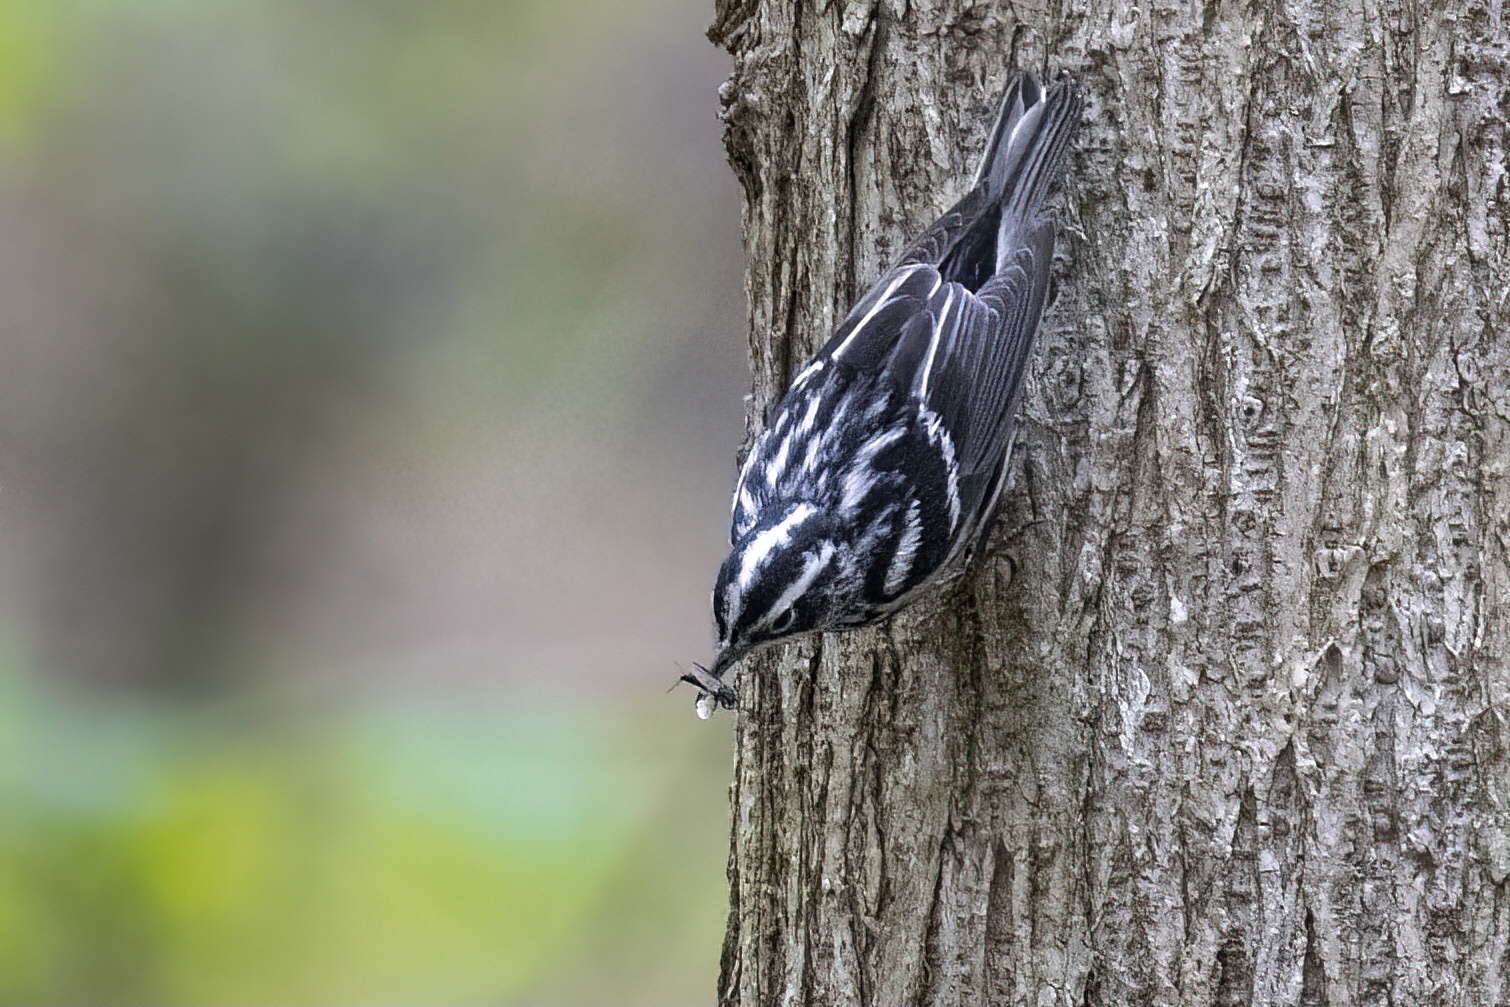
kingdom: Animalia
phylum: Chordata
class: Aves
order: Passeriformes
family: Parulidae
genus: Mniotilta
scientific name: Mniotilta varia
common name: Black-and-white warbler
